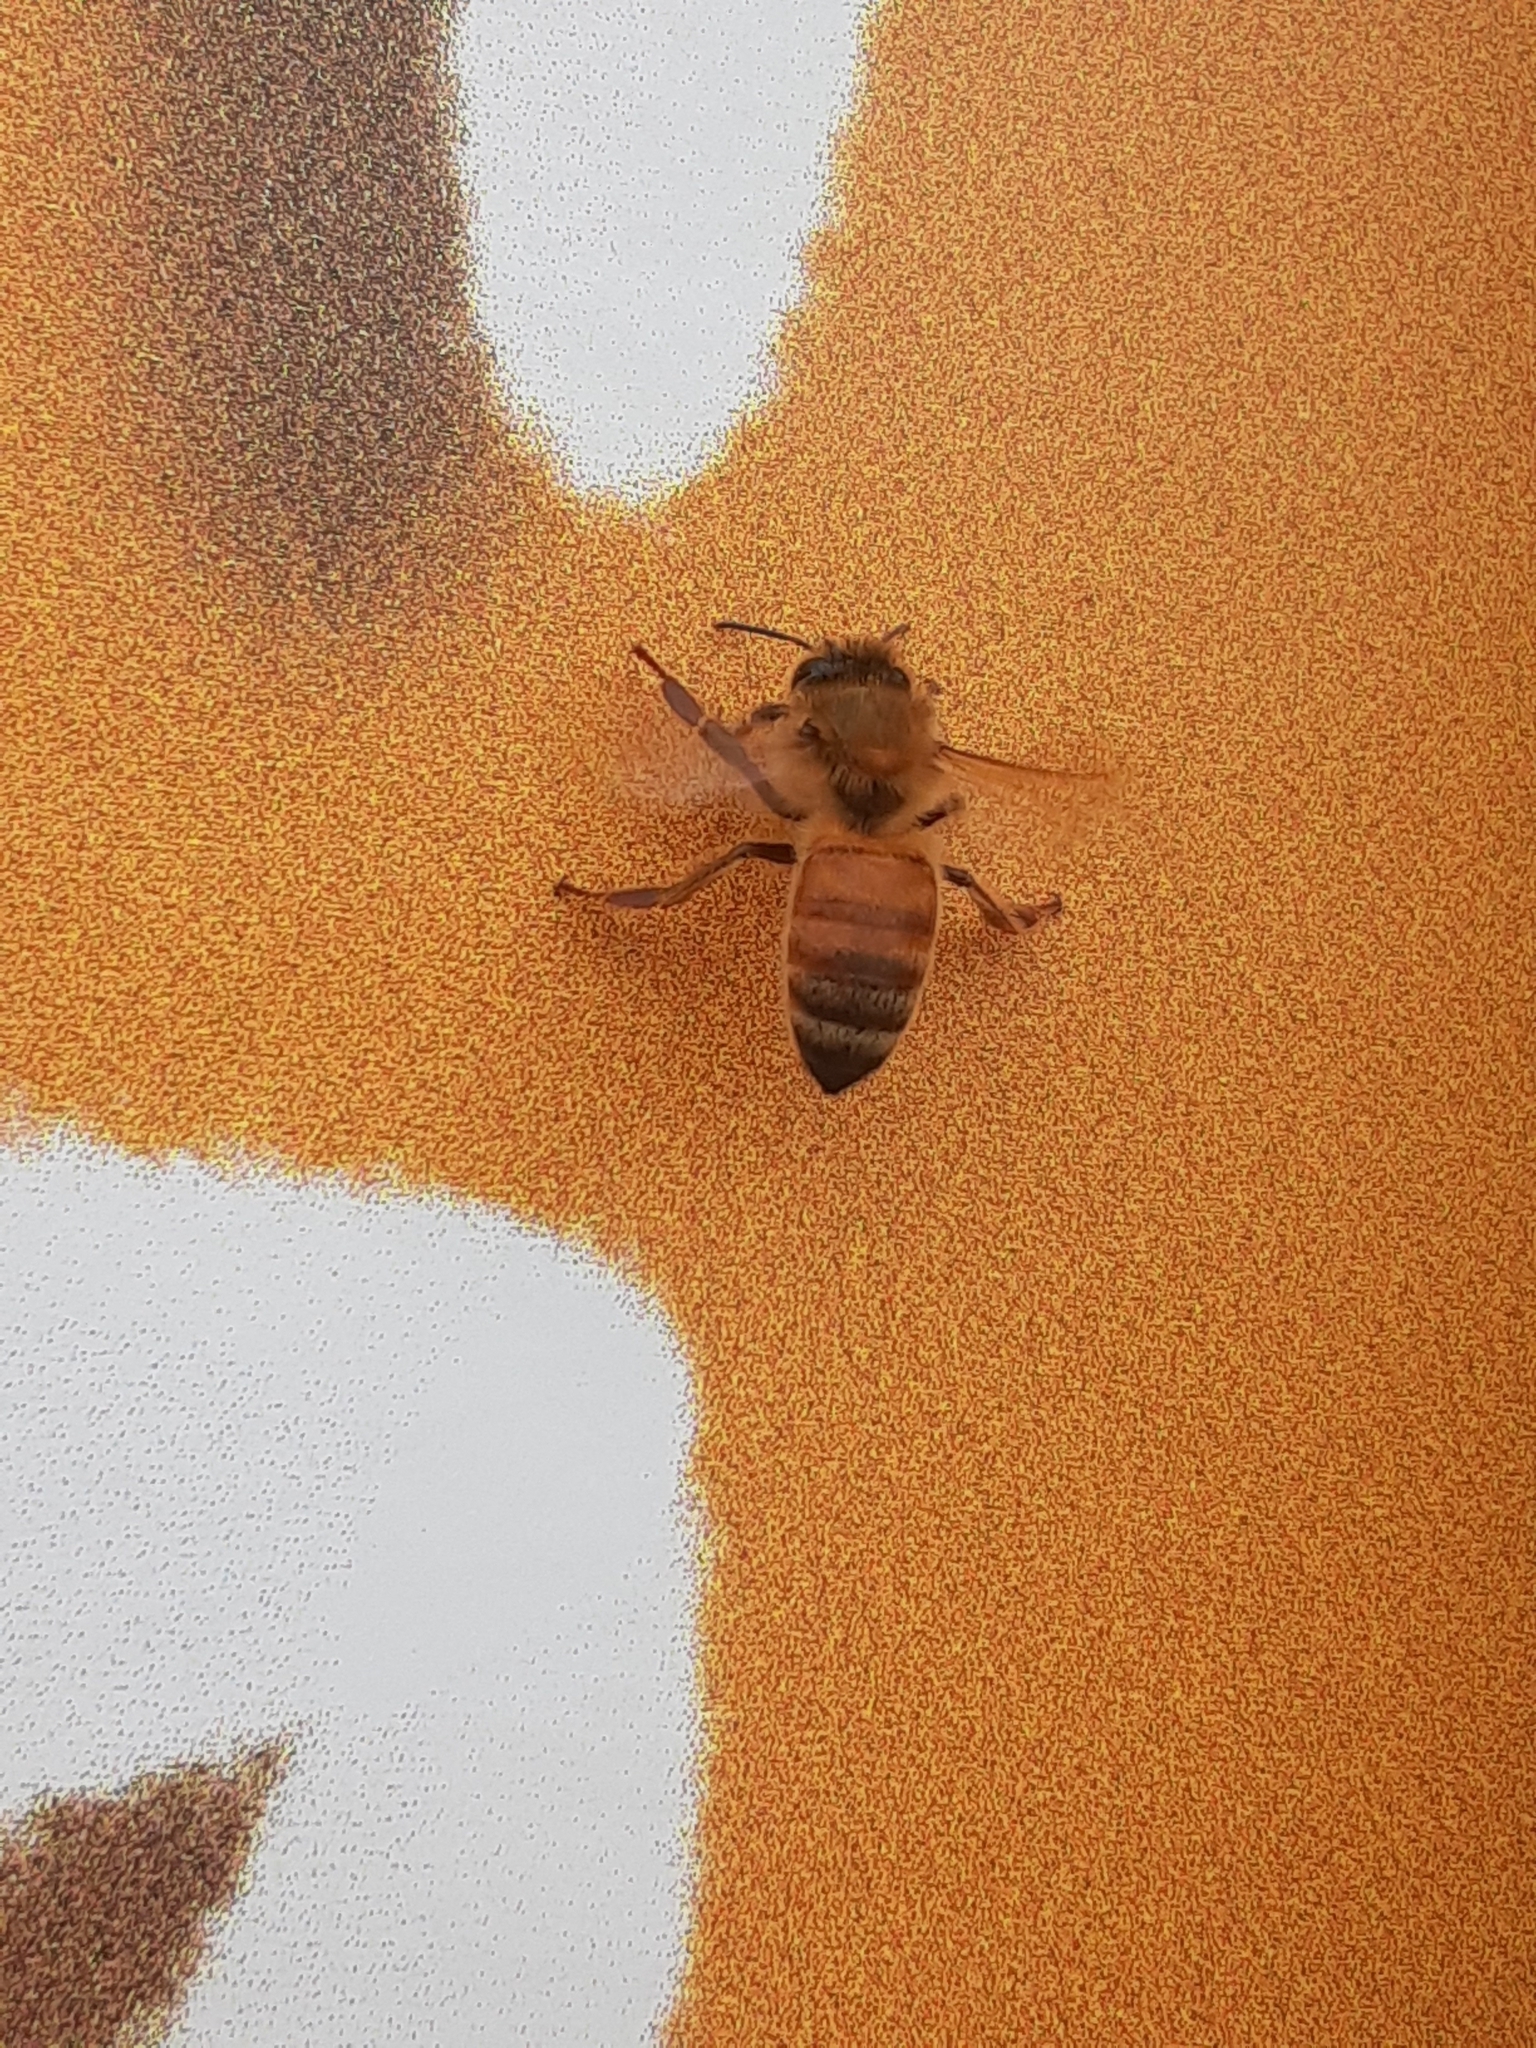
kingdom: Animalia
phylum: Arthropoda
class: Insecta
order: Hymenoptera
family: Apidae
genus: Apis
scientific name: Apis mellifera
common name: Honey bee
